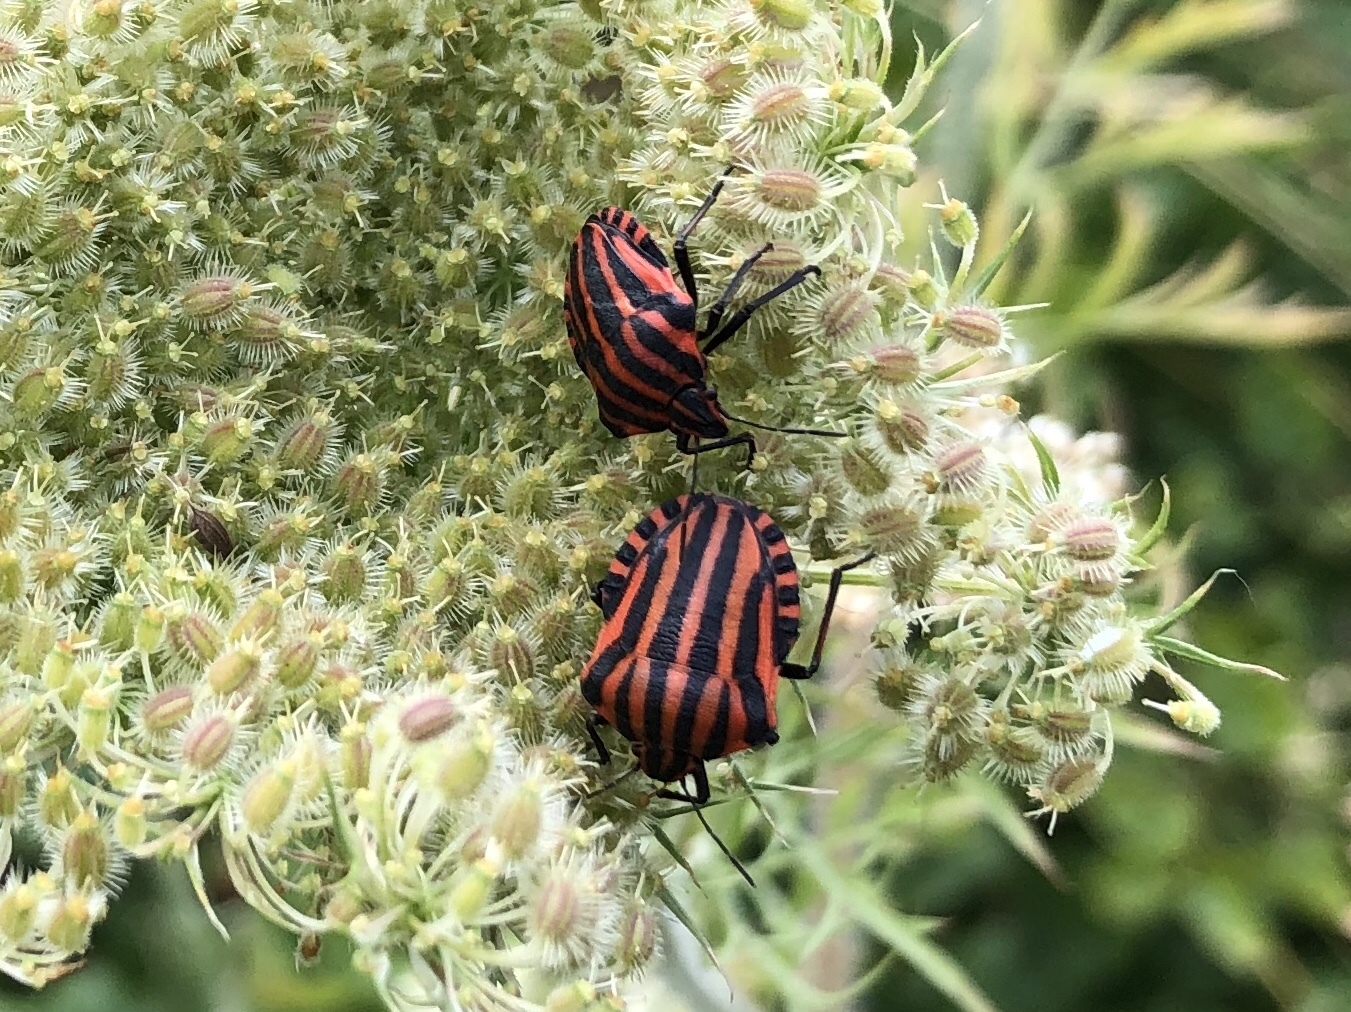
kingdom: Animalia
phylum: Arthropoda
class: Insecta
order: Hemiptera
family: Pentatomidae
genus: Graphosoma
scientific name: Graphosoma italicum
